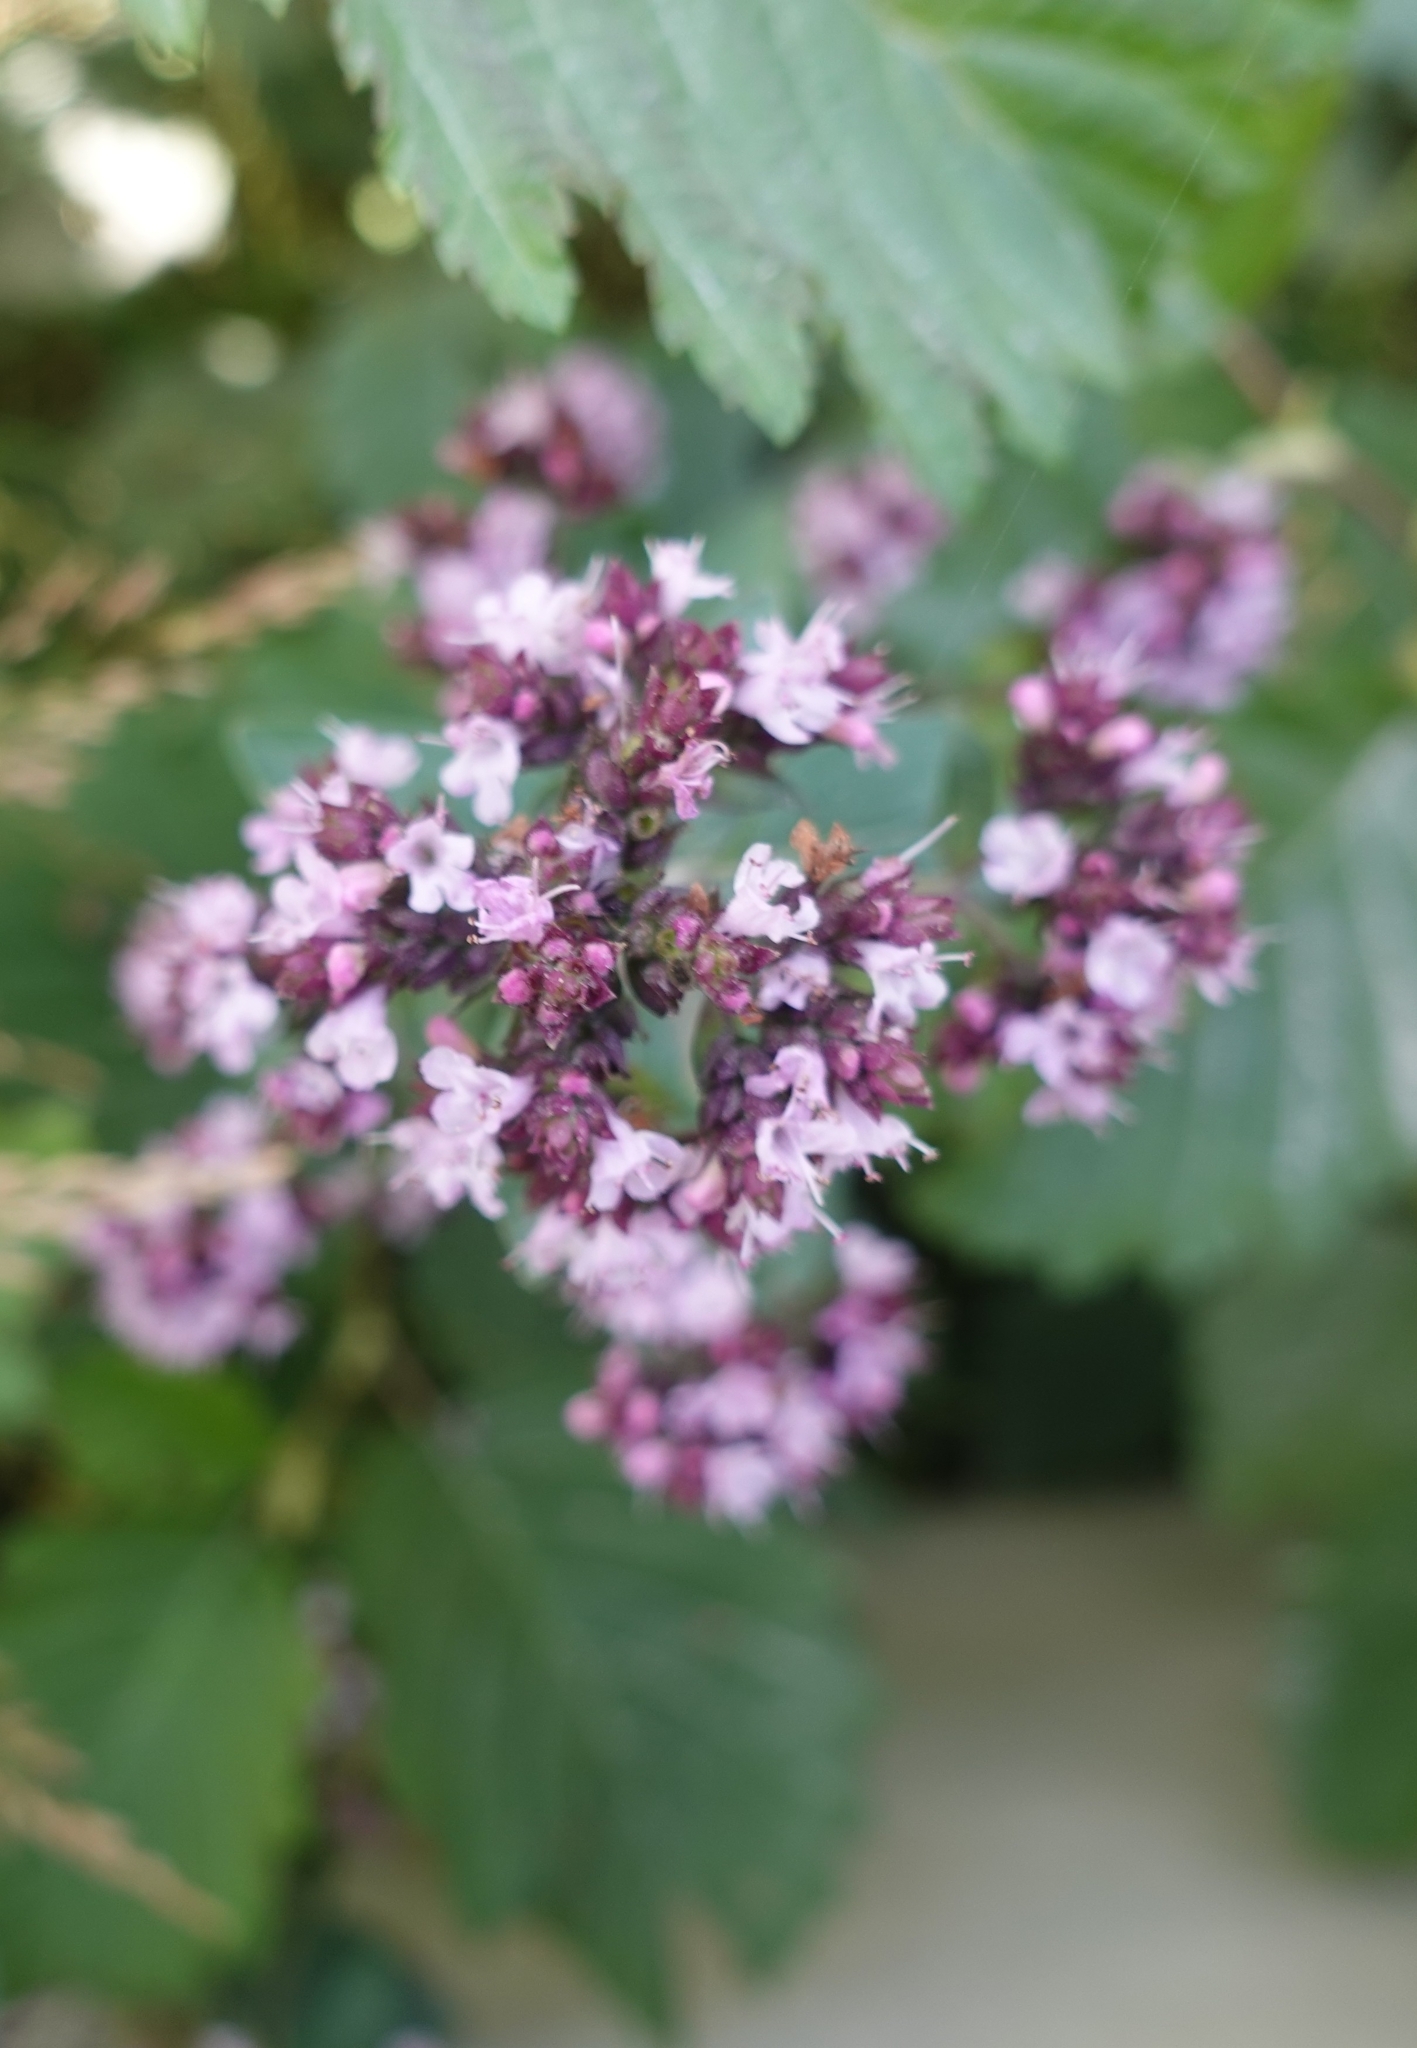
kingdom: Plantae
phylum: Tracheophyta
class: Magnoliopsida
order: Lamiales
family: Lamiaceae
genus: Origanum
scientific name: Origanum vulgare
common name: Wild marjoram
